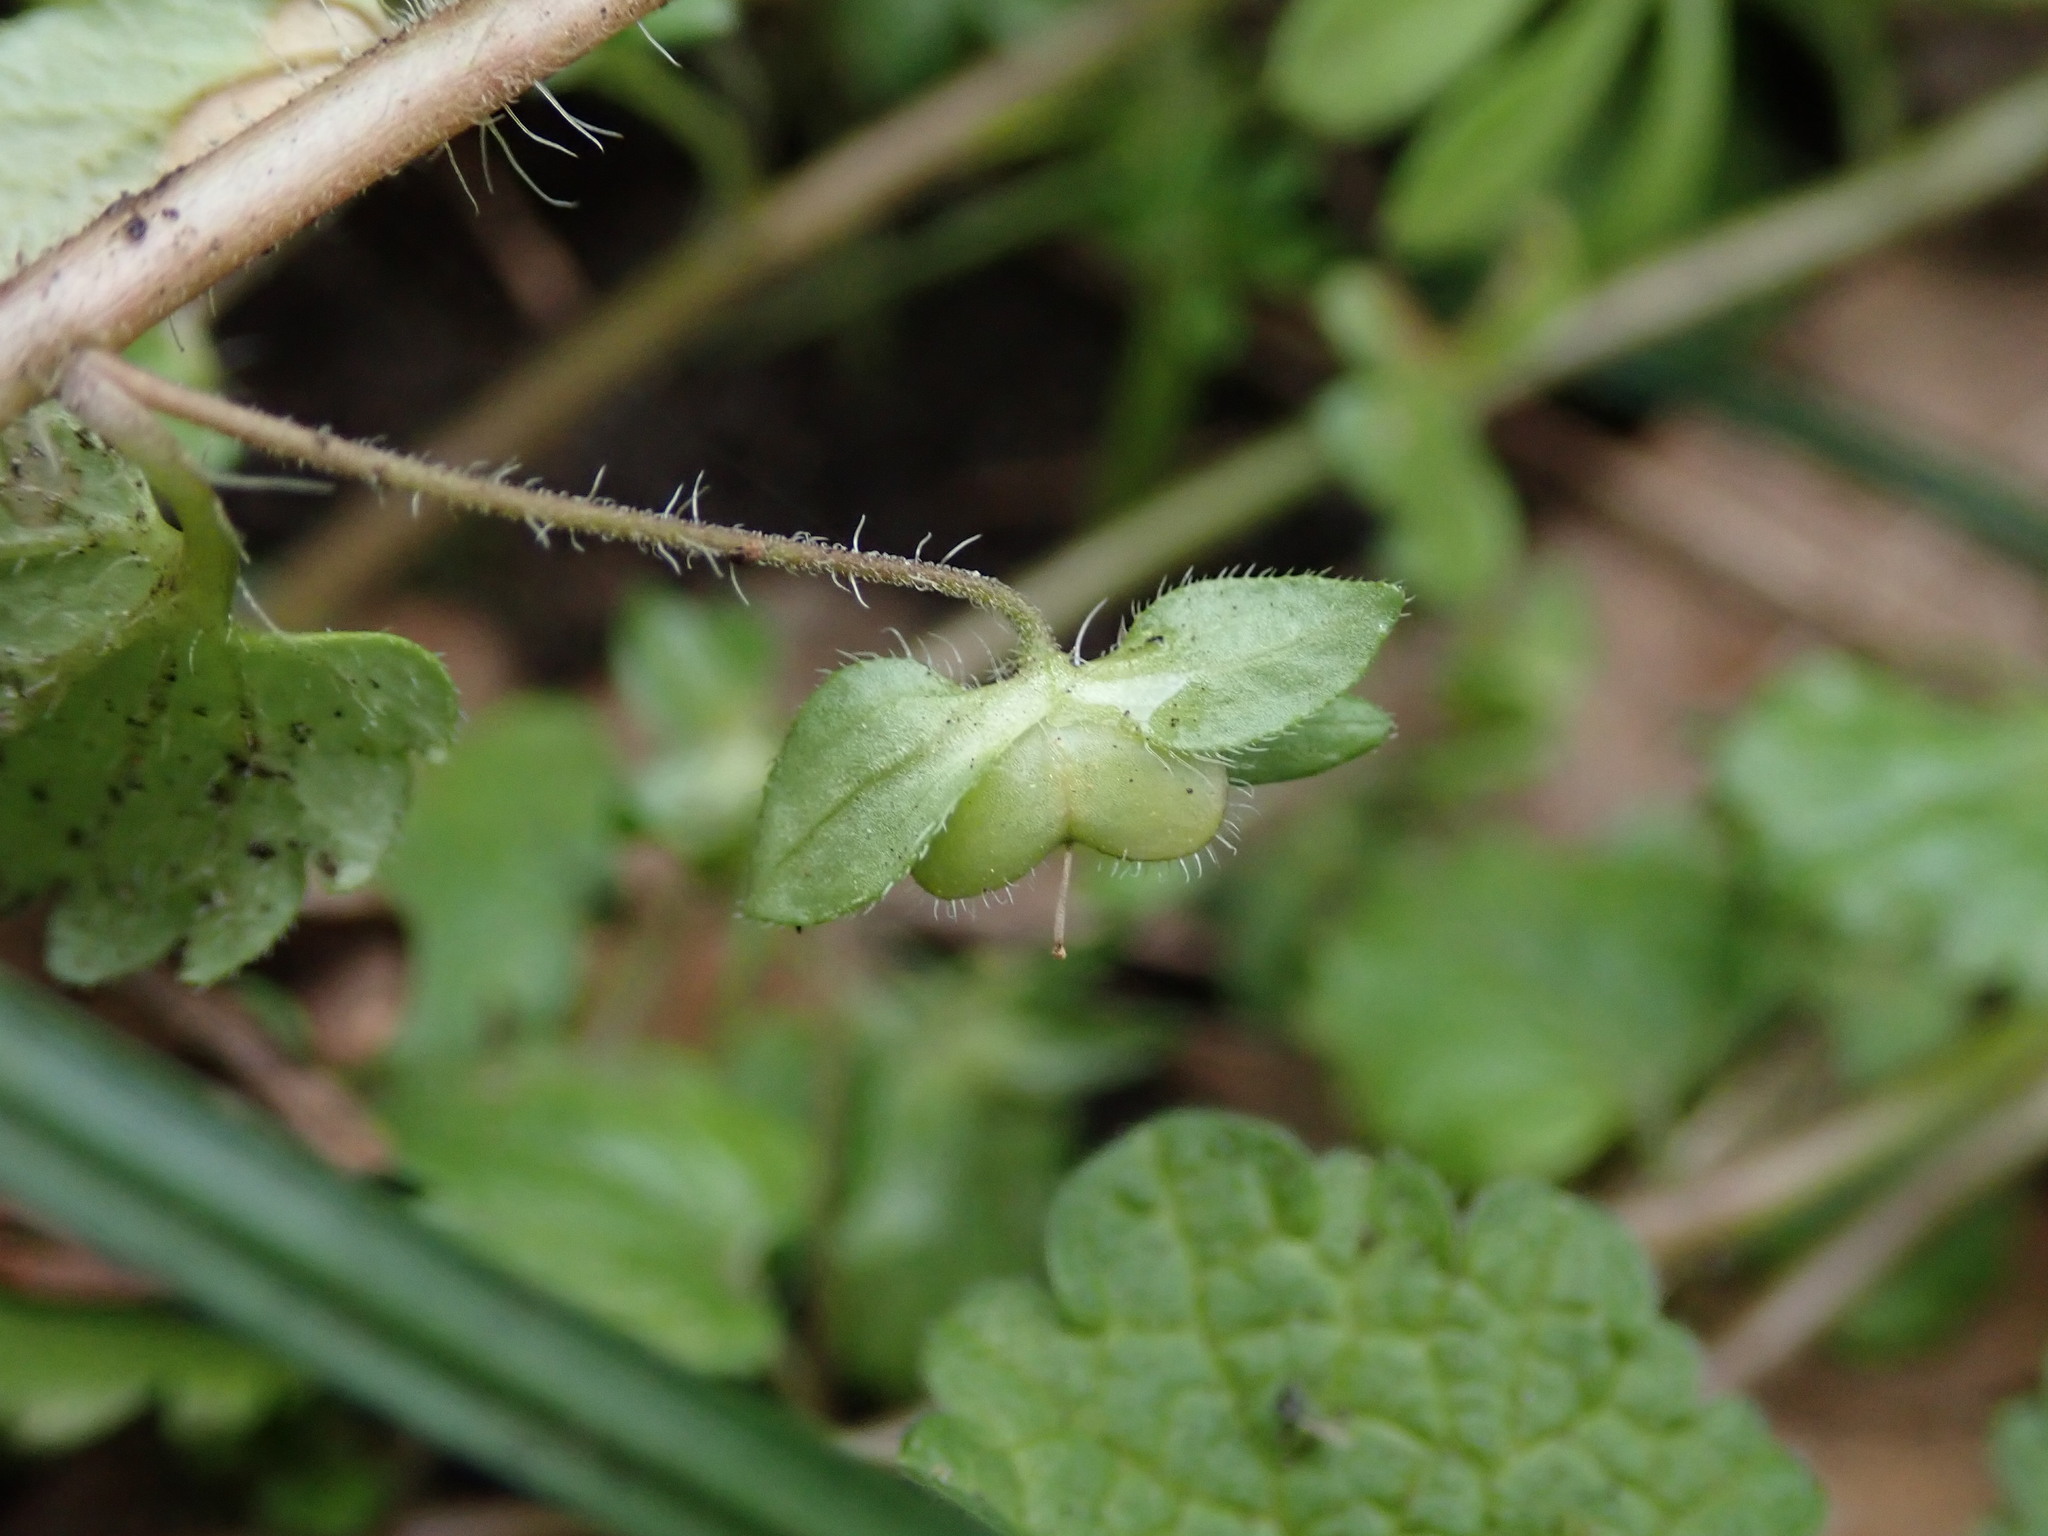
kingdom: Plantae
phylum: Tracheophyta
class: Magnoliopsida
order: Lamiales
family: Plantaginaceae
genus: Veronica
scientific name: Veronica persica
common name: Common field-speedwell
